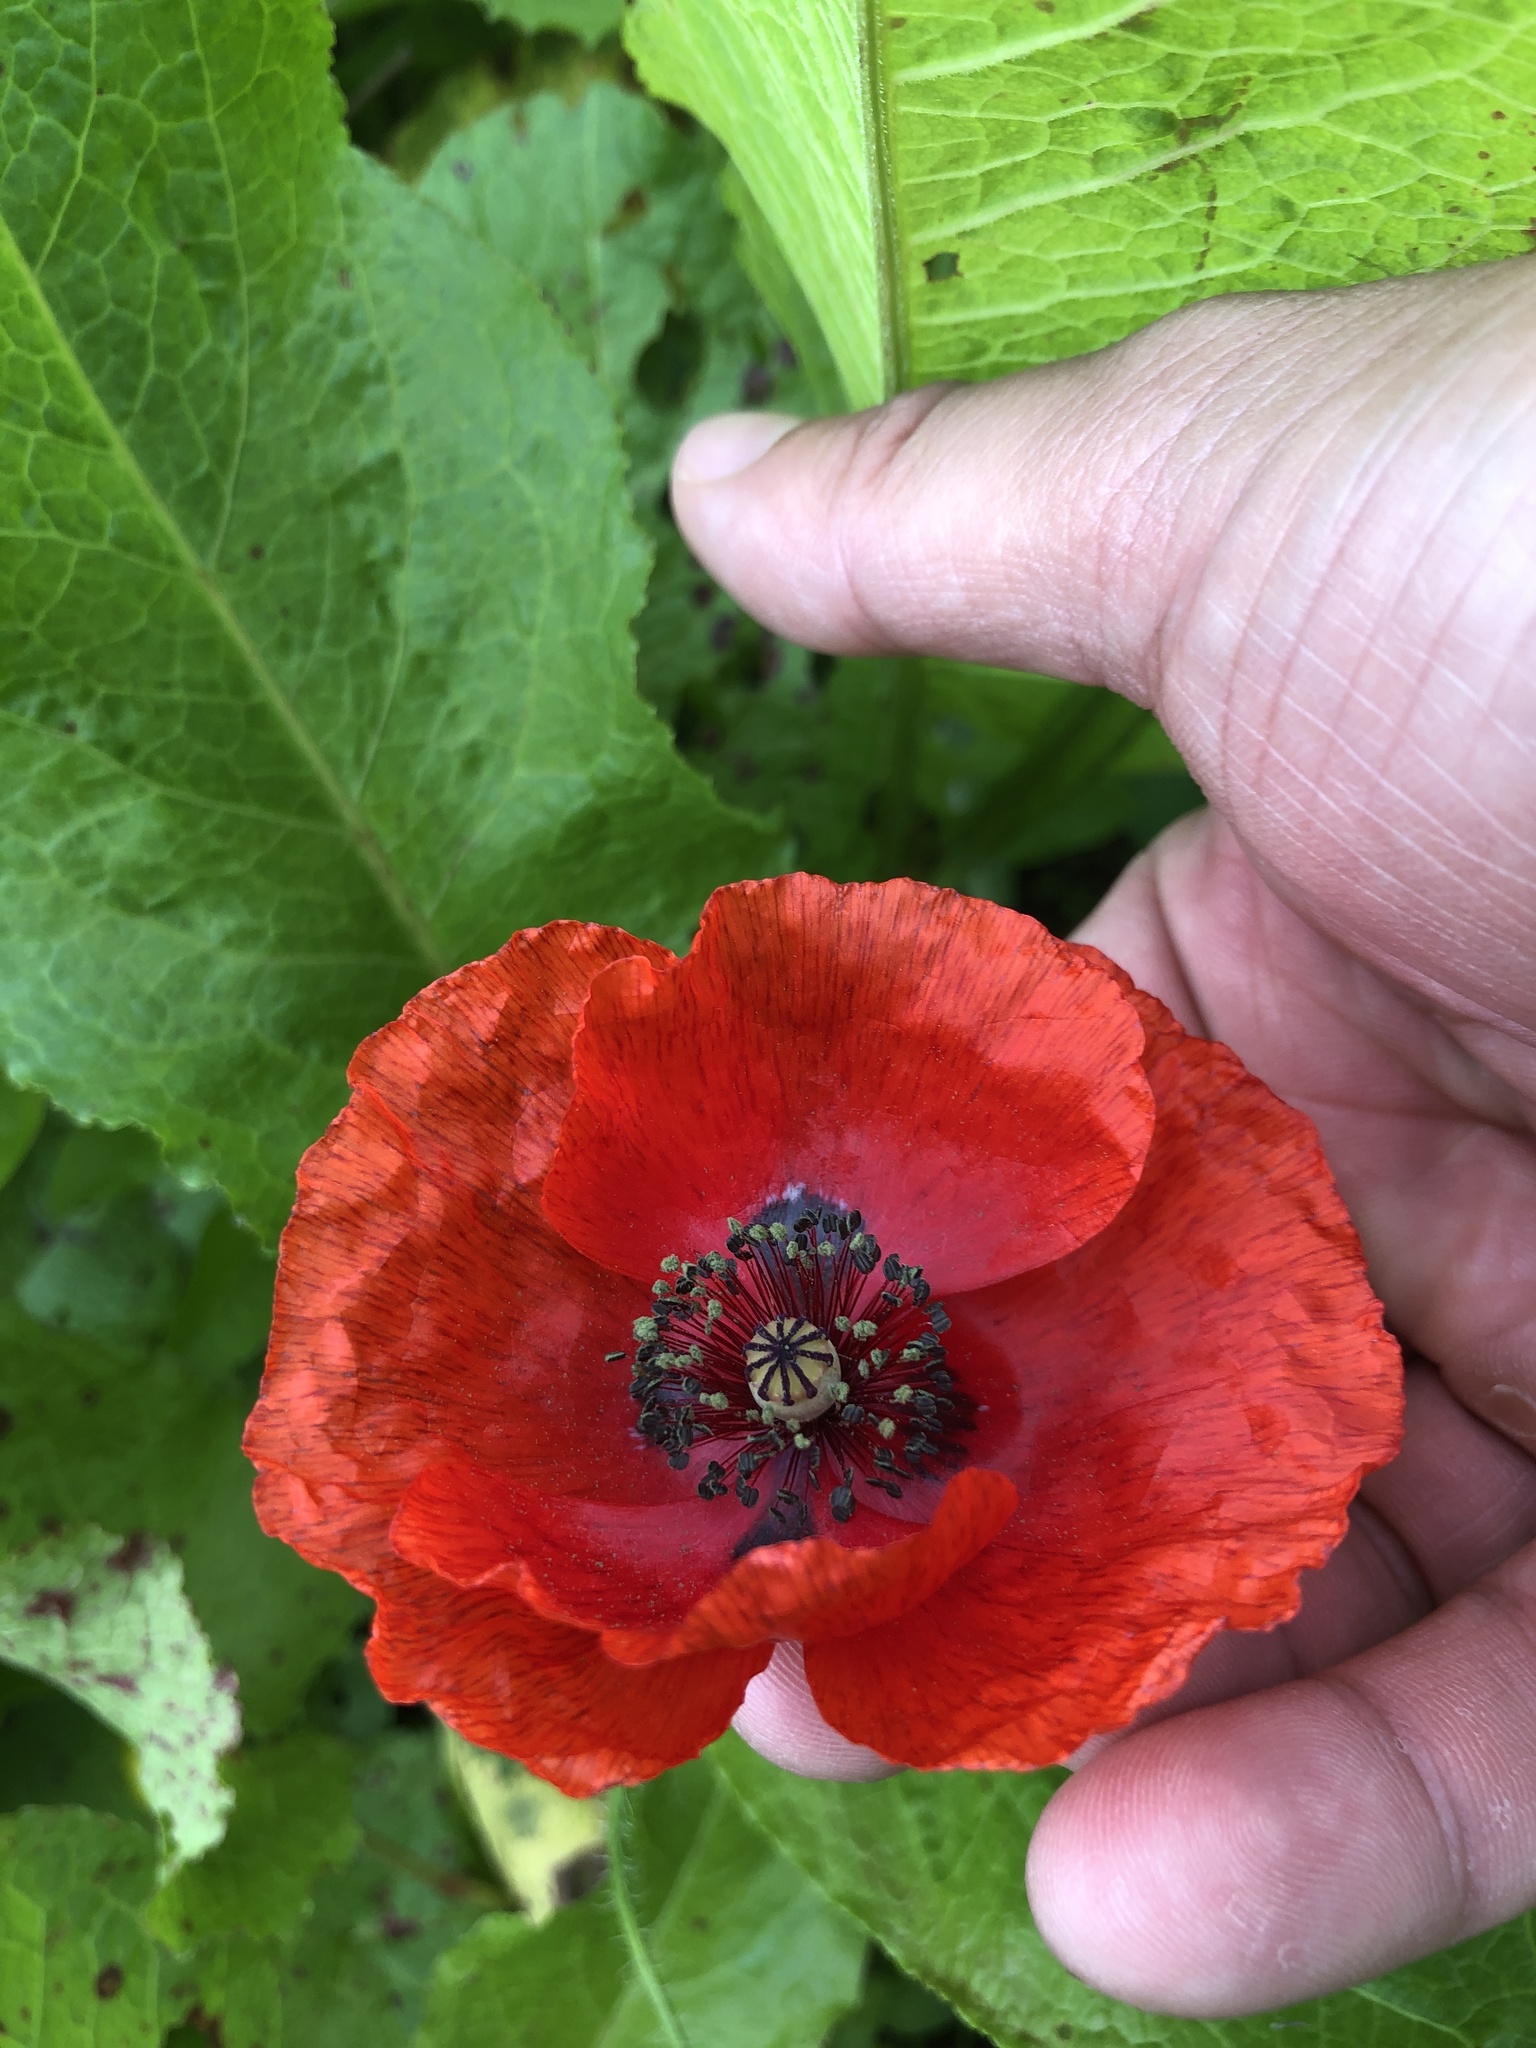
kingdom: Plantae
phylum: Tracheophyta
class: Magnoliopsida
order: Ranunculales
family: Papaveraceae
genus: Papaver
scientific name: Papaver rhoeas
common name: Corn poppy
